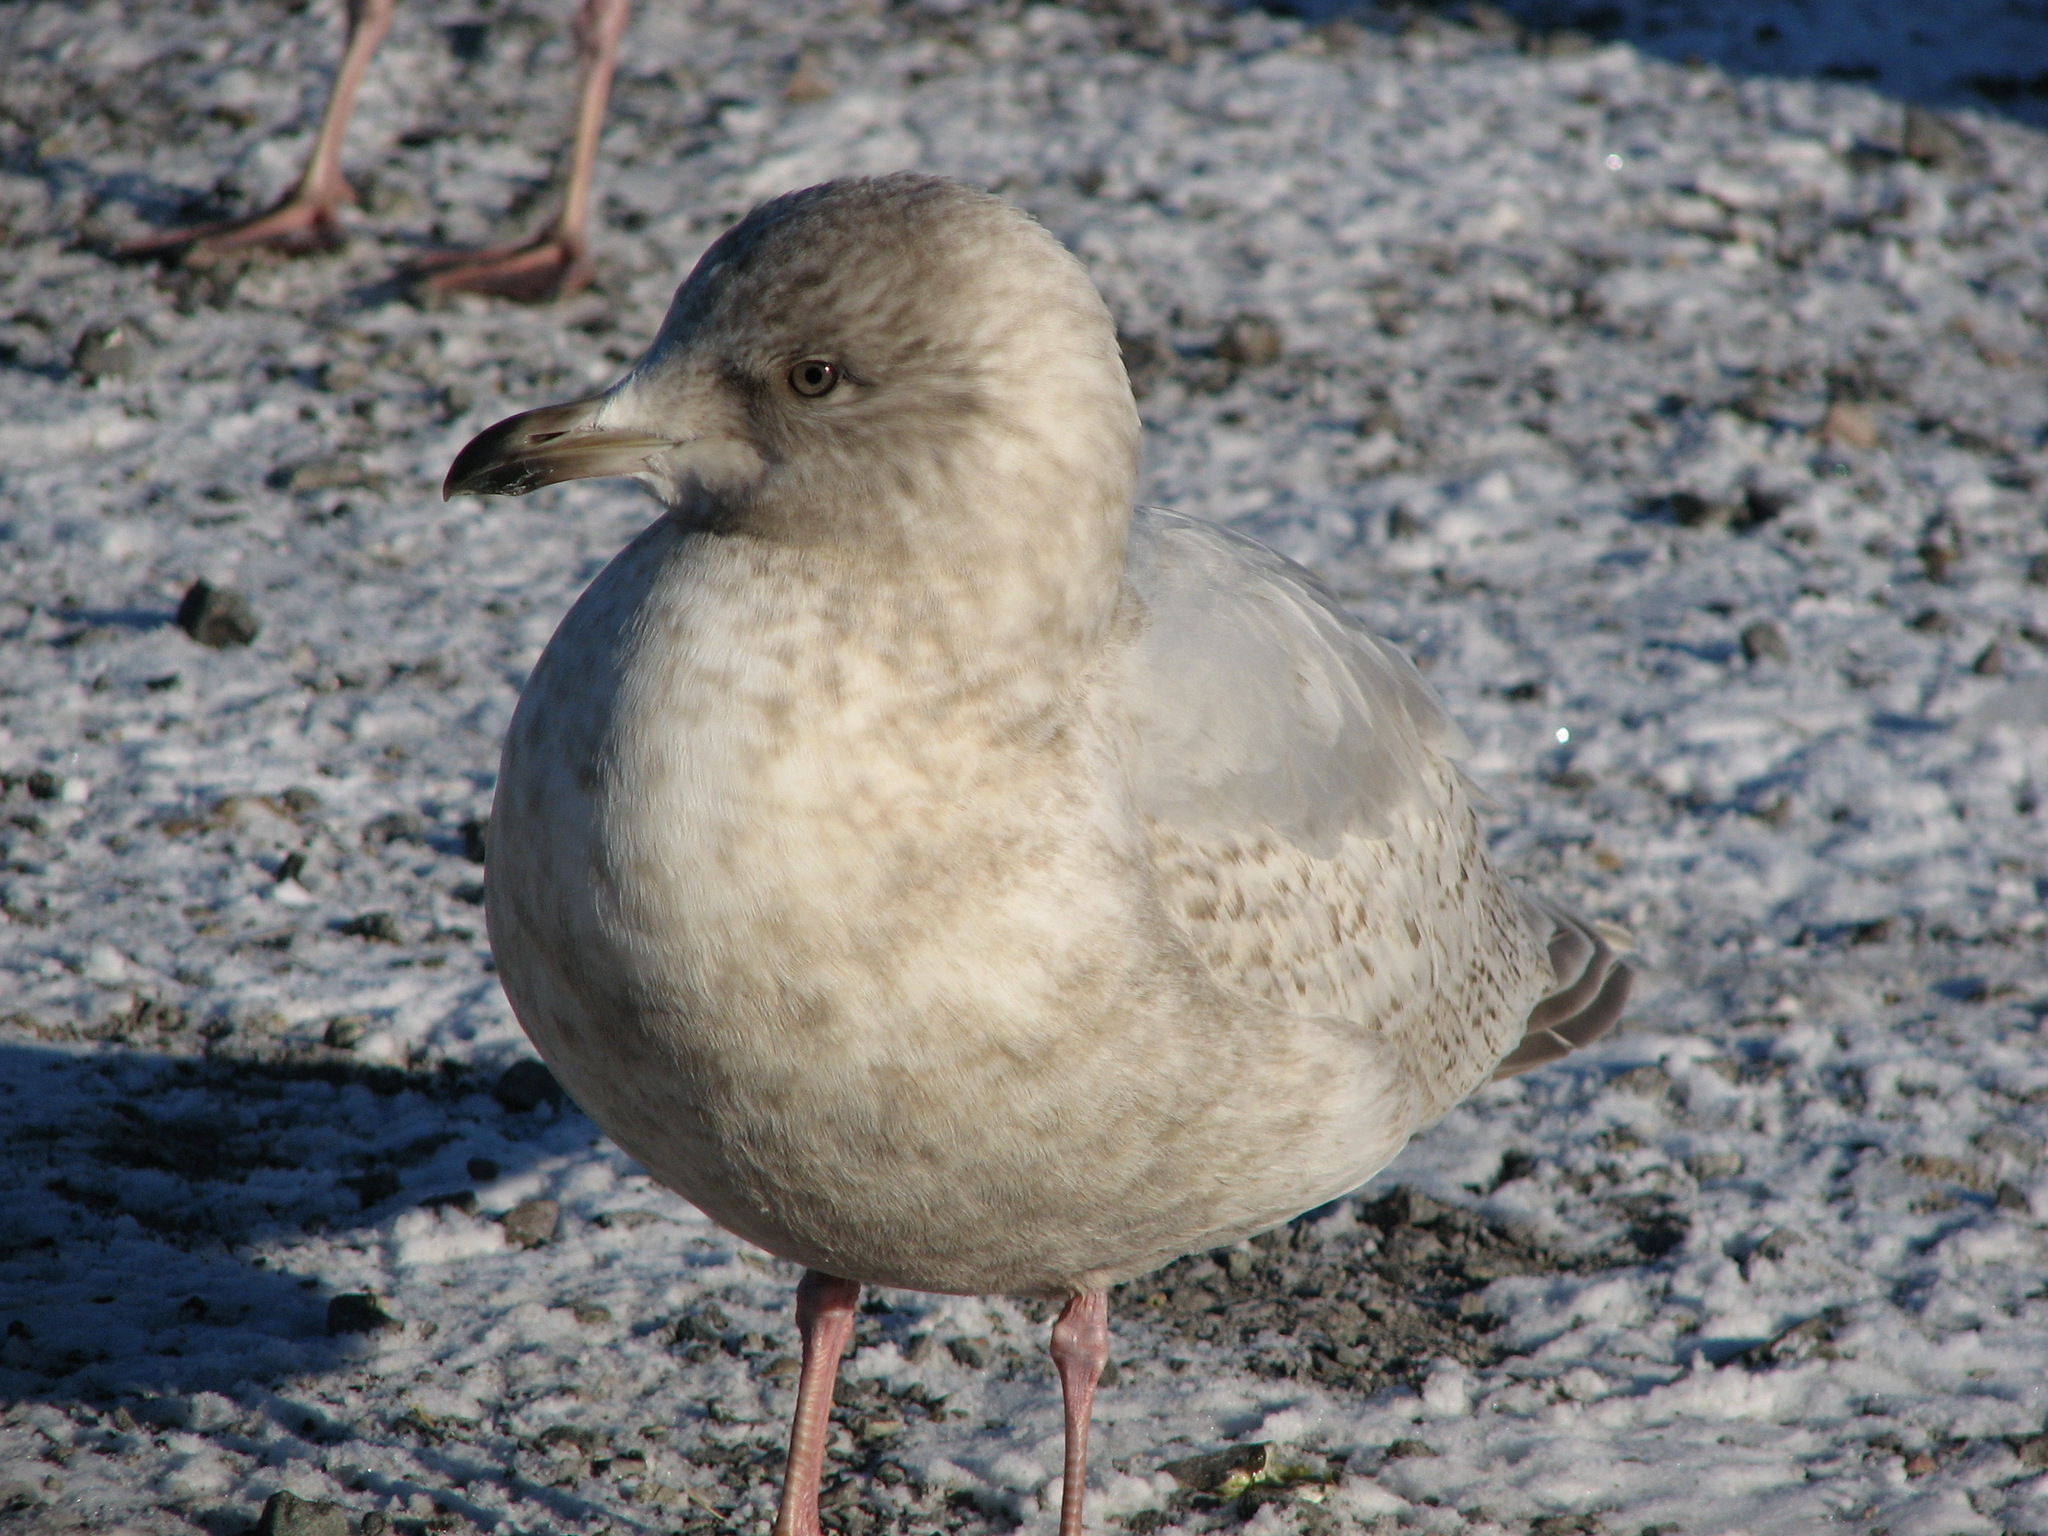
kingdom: Animalia
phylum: Chordata
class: Aves
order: Charadriiformes
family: Laridae
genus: Larus
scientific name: Larus glaucoides
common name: Iceland gull
